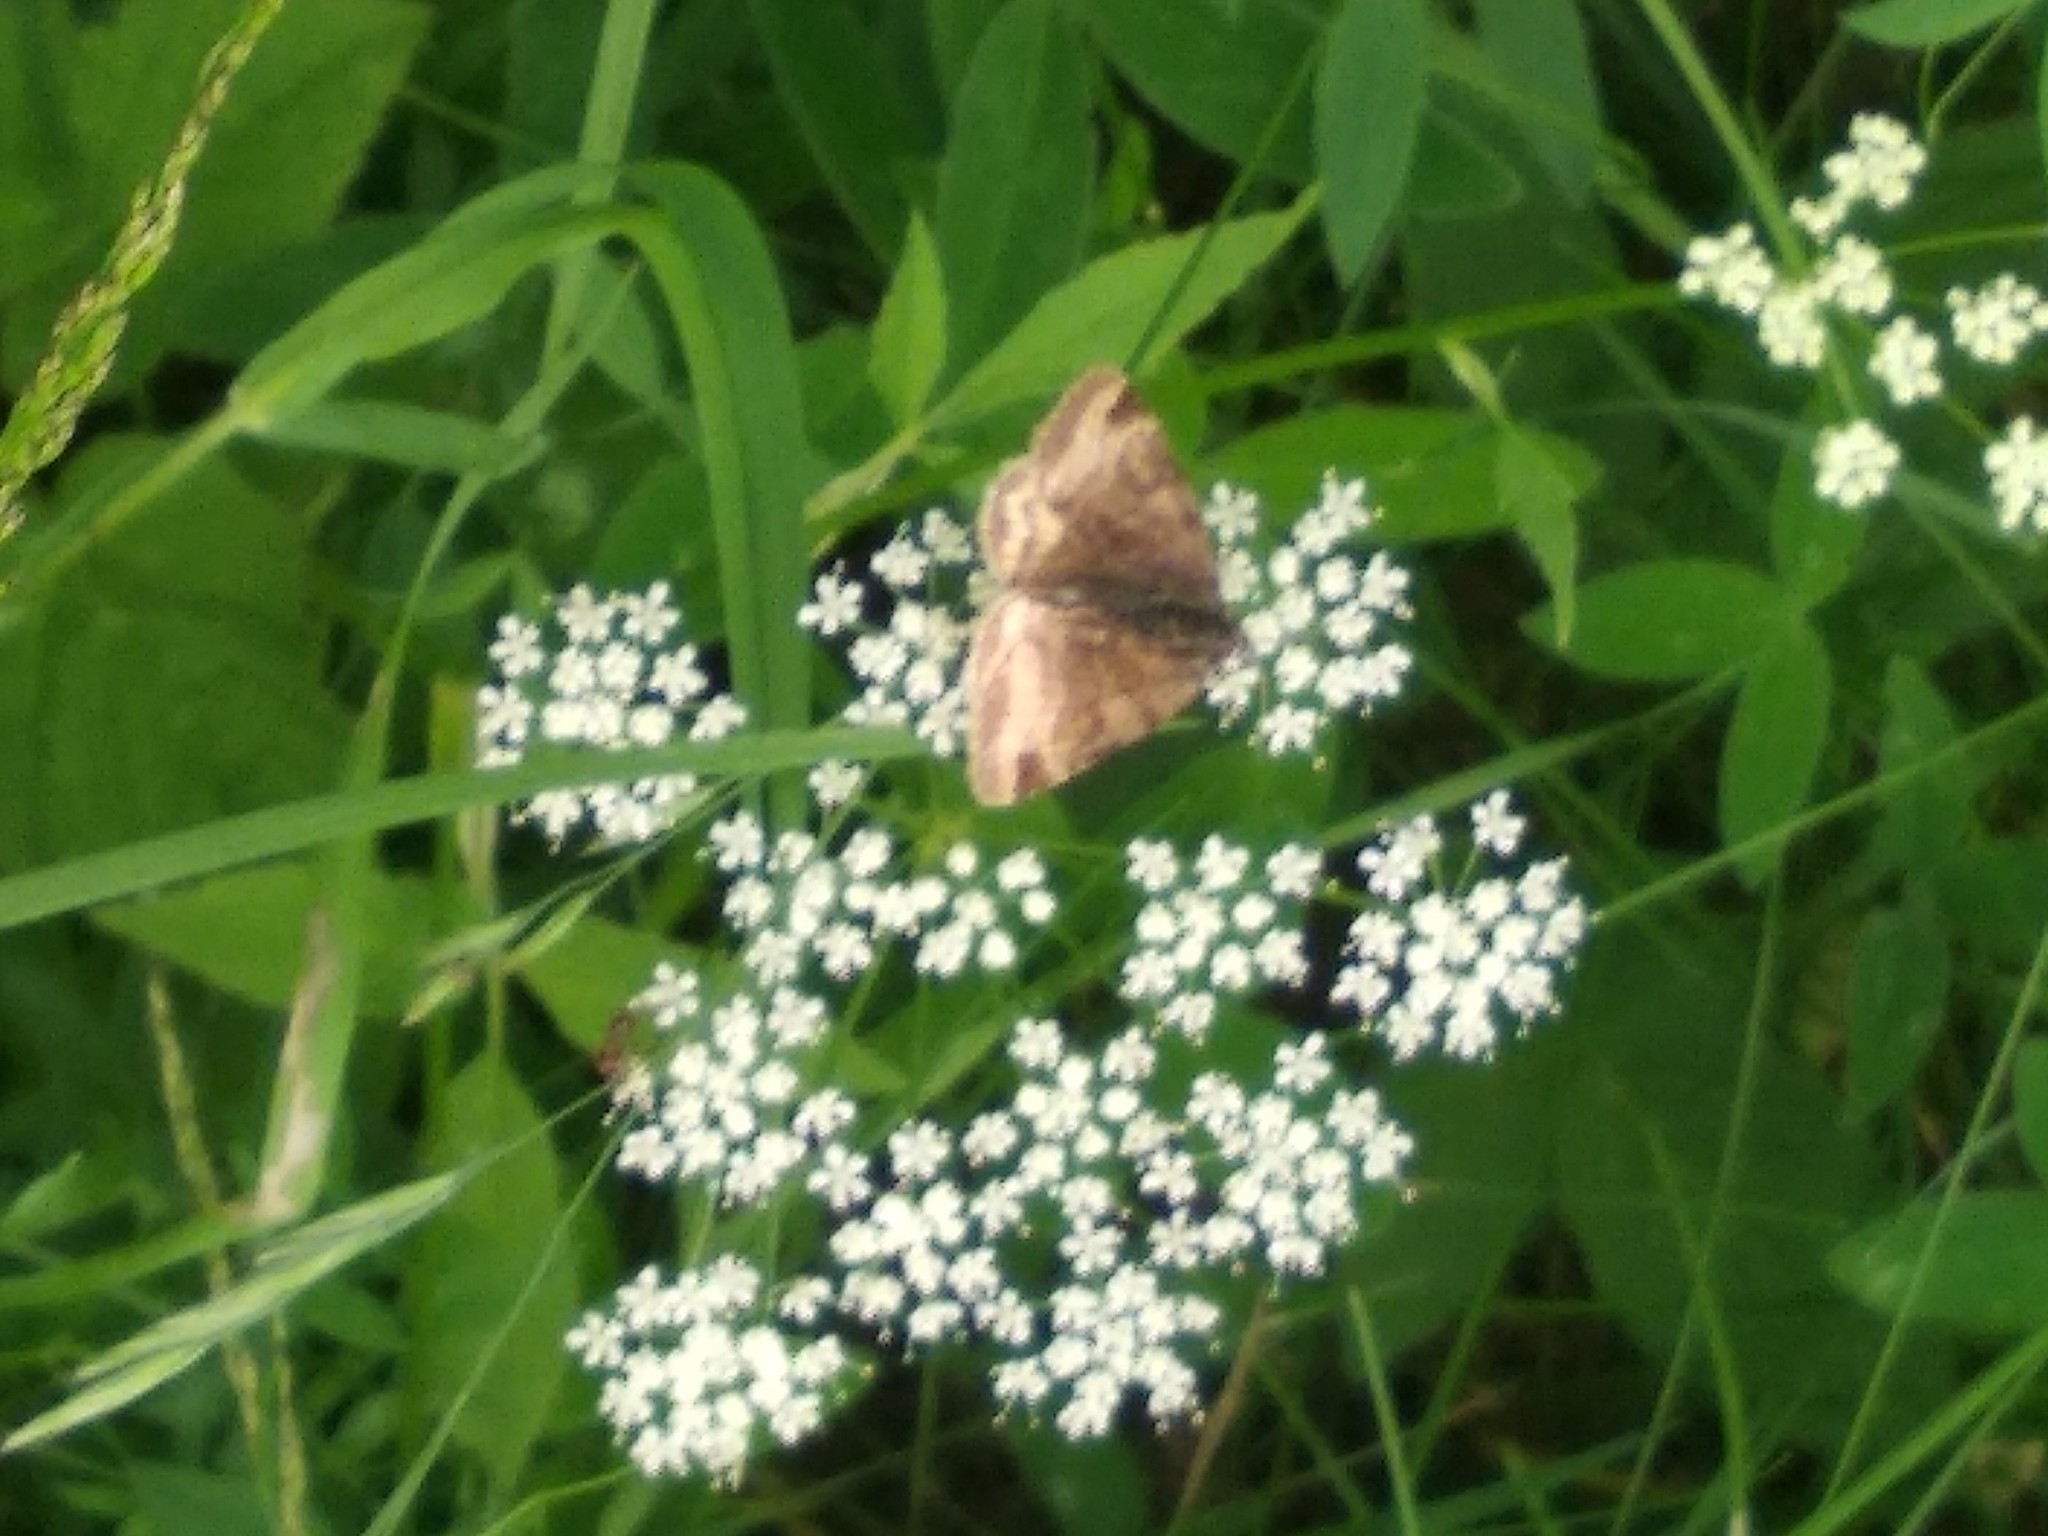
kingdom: Animalia
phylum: Arthropoda
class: Insecta
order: Lepidoptera
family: Erebidae
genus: Euclidia
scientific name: Euclidia glyphica
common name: Burnet companion
